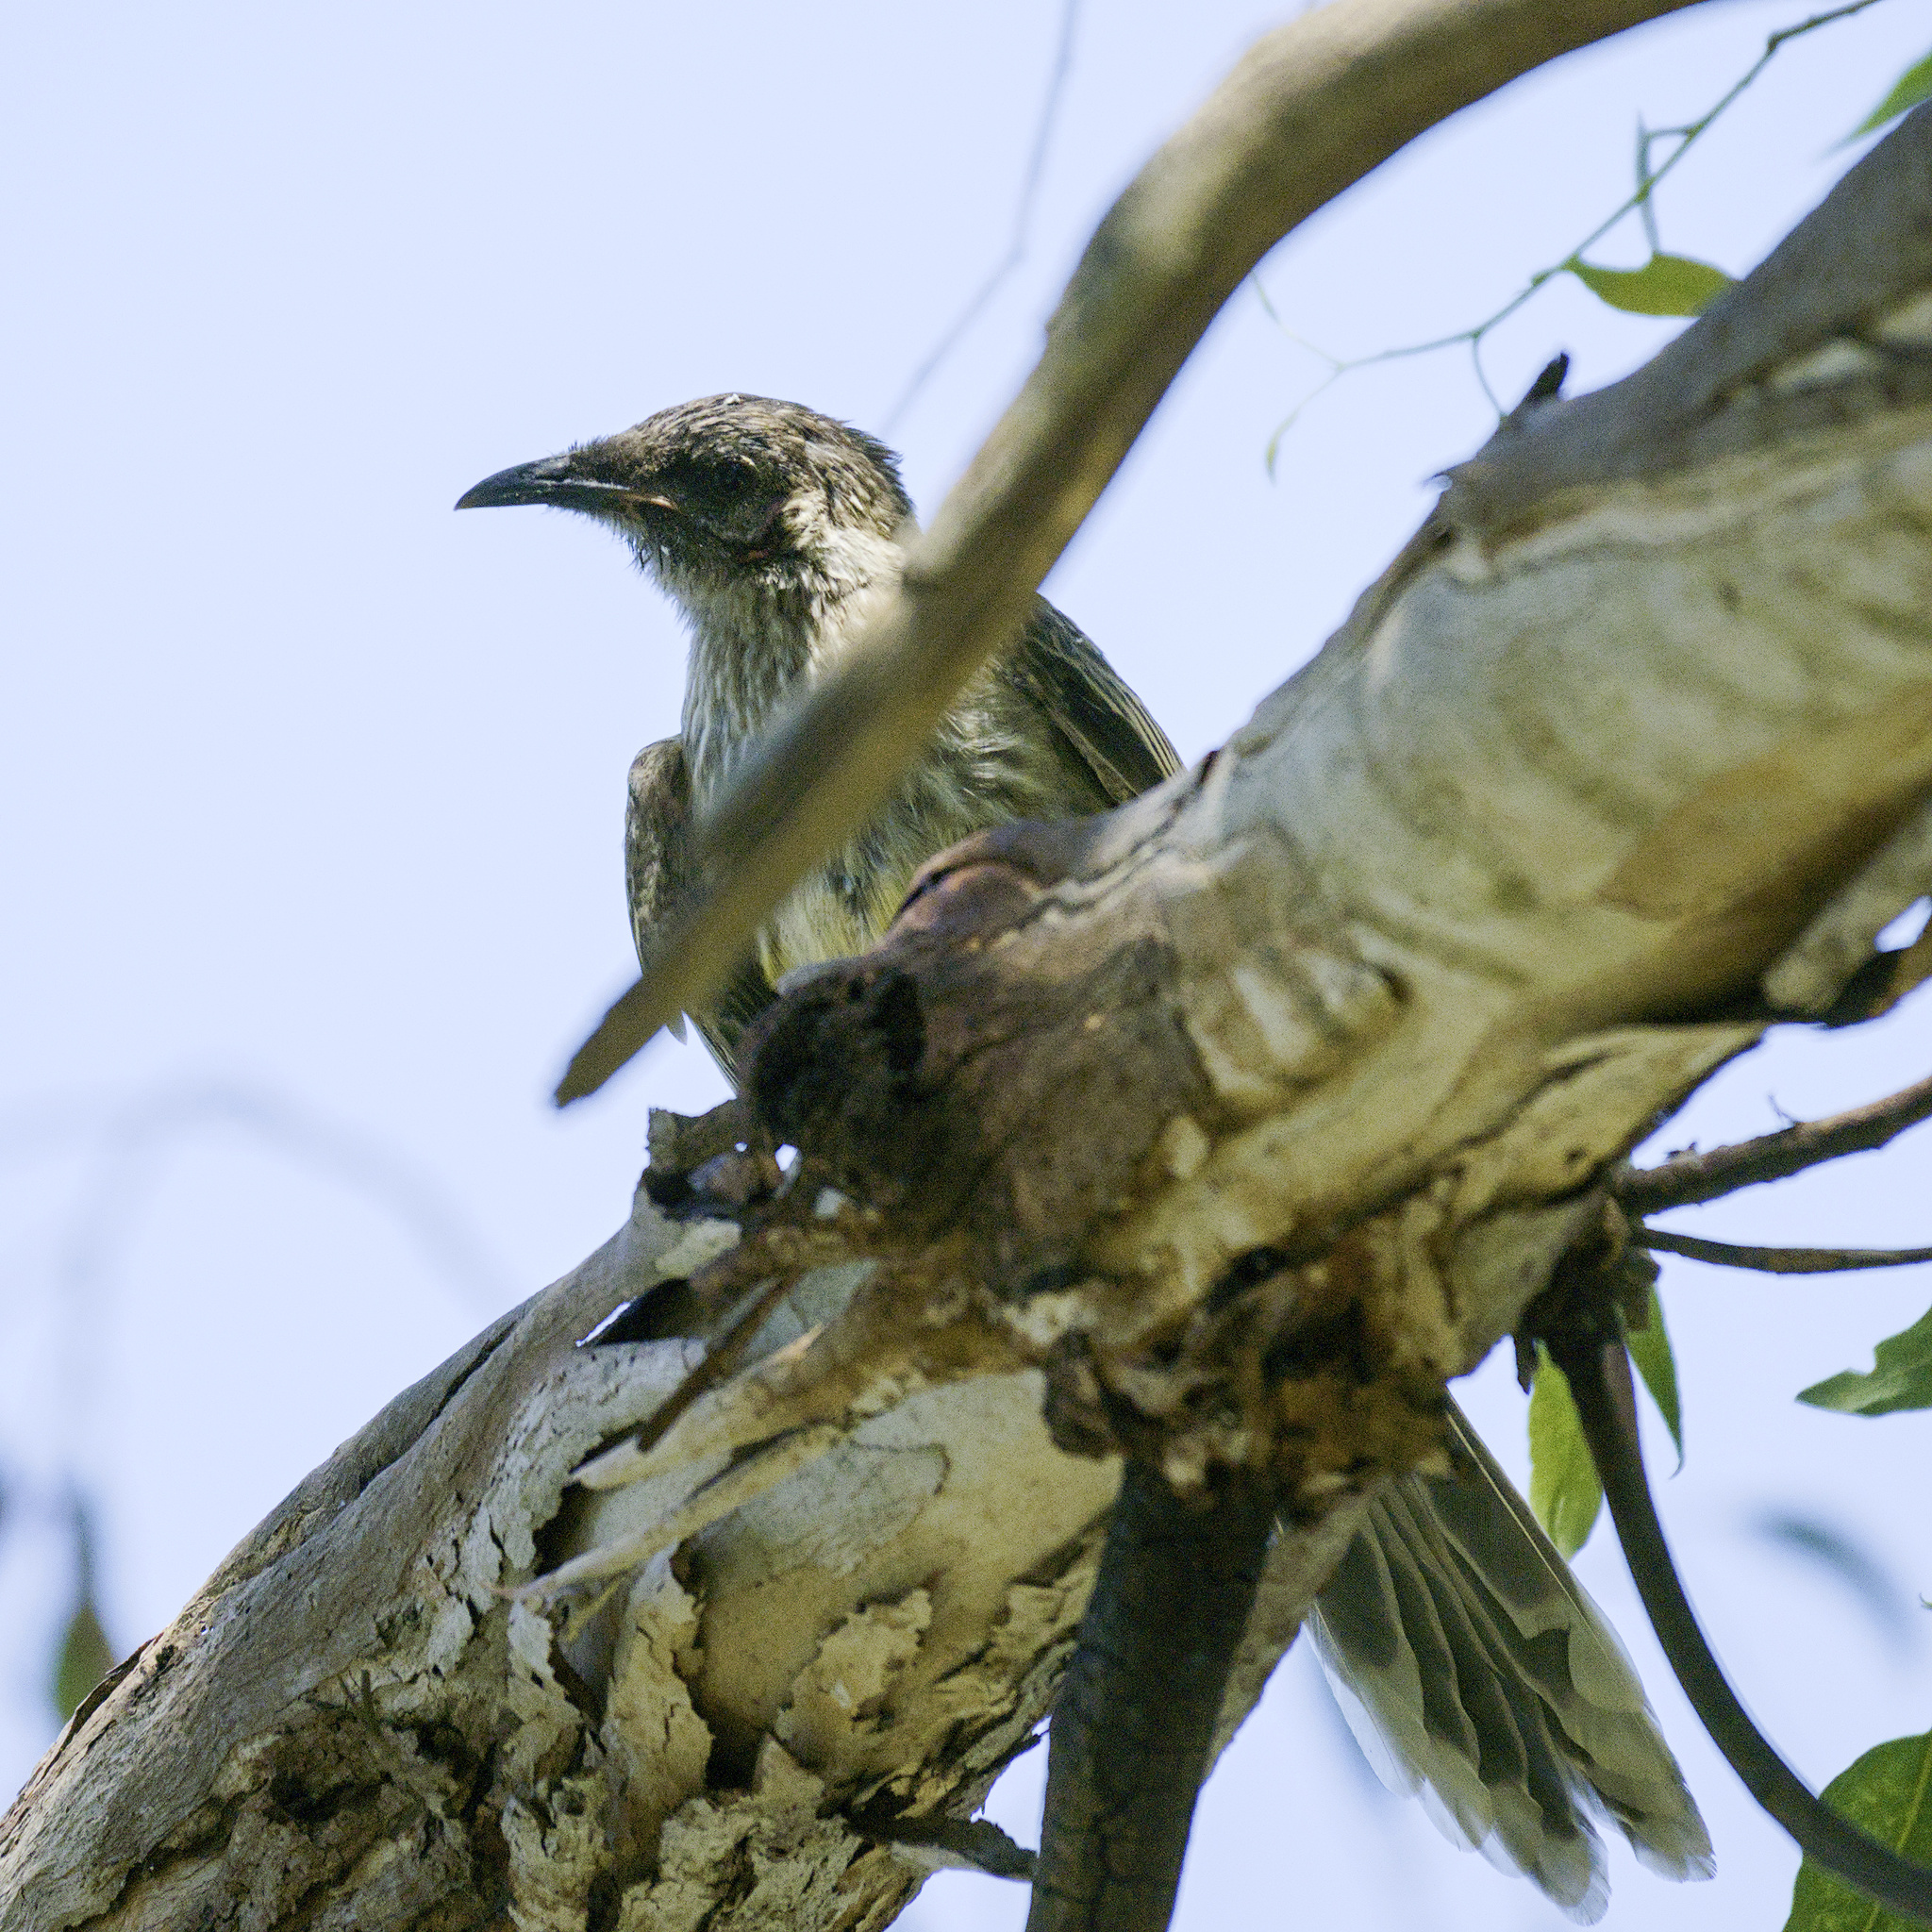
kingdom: Animalia
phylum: Chordata
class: Aves
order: Passeriformes
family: Meliphagidae
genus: Anthochaera
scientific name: Anthochaera carunculata
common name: Red wattlebird
